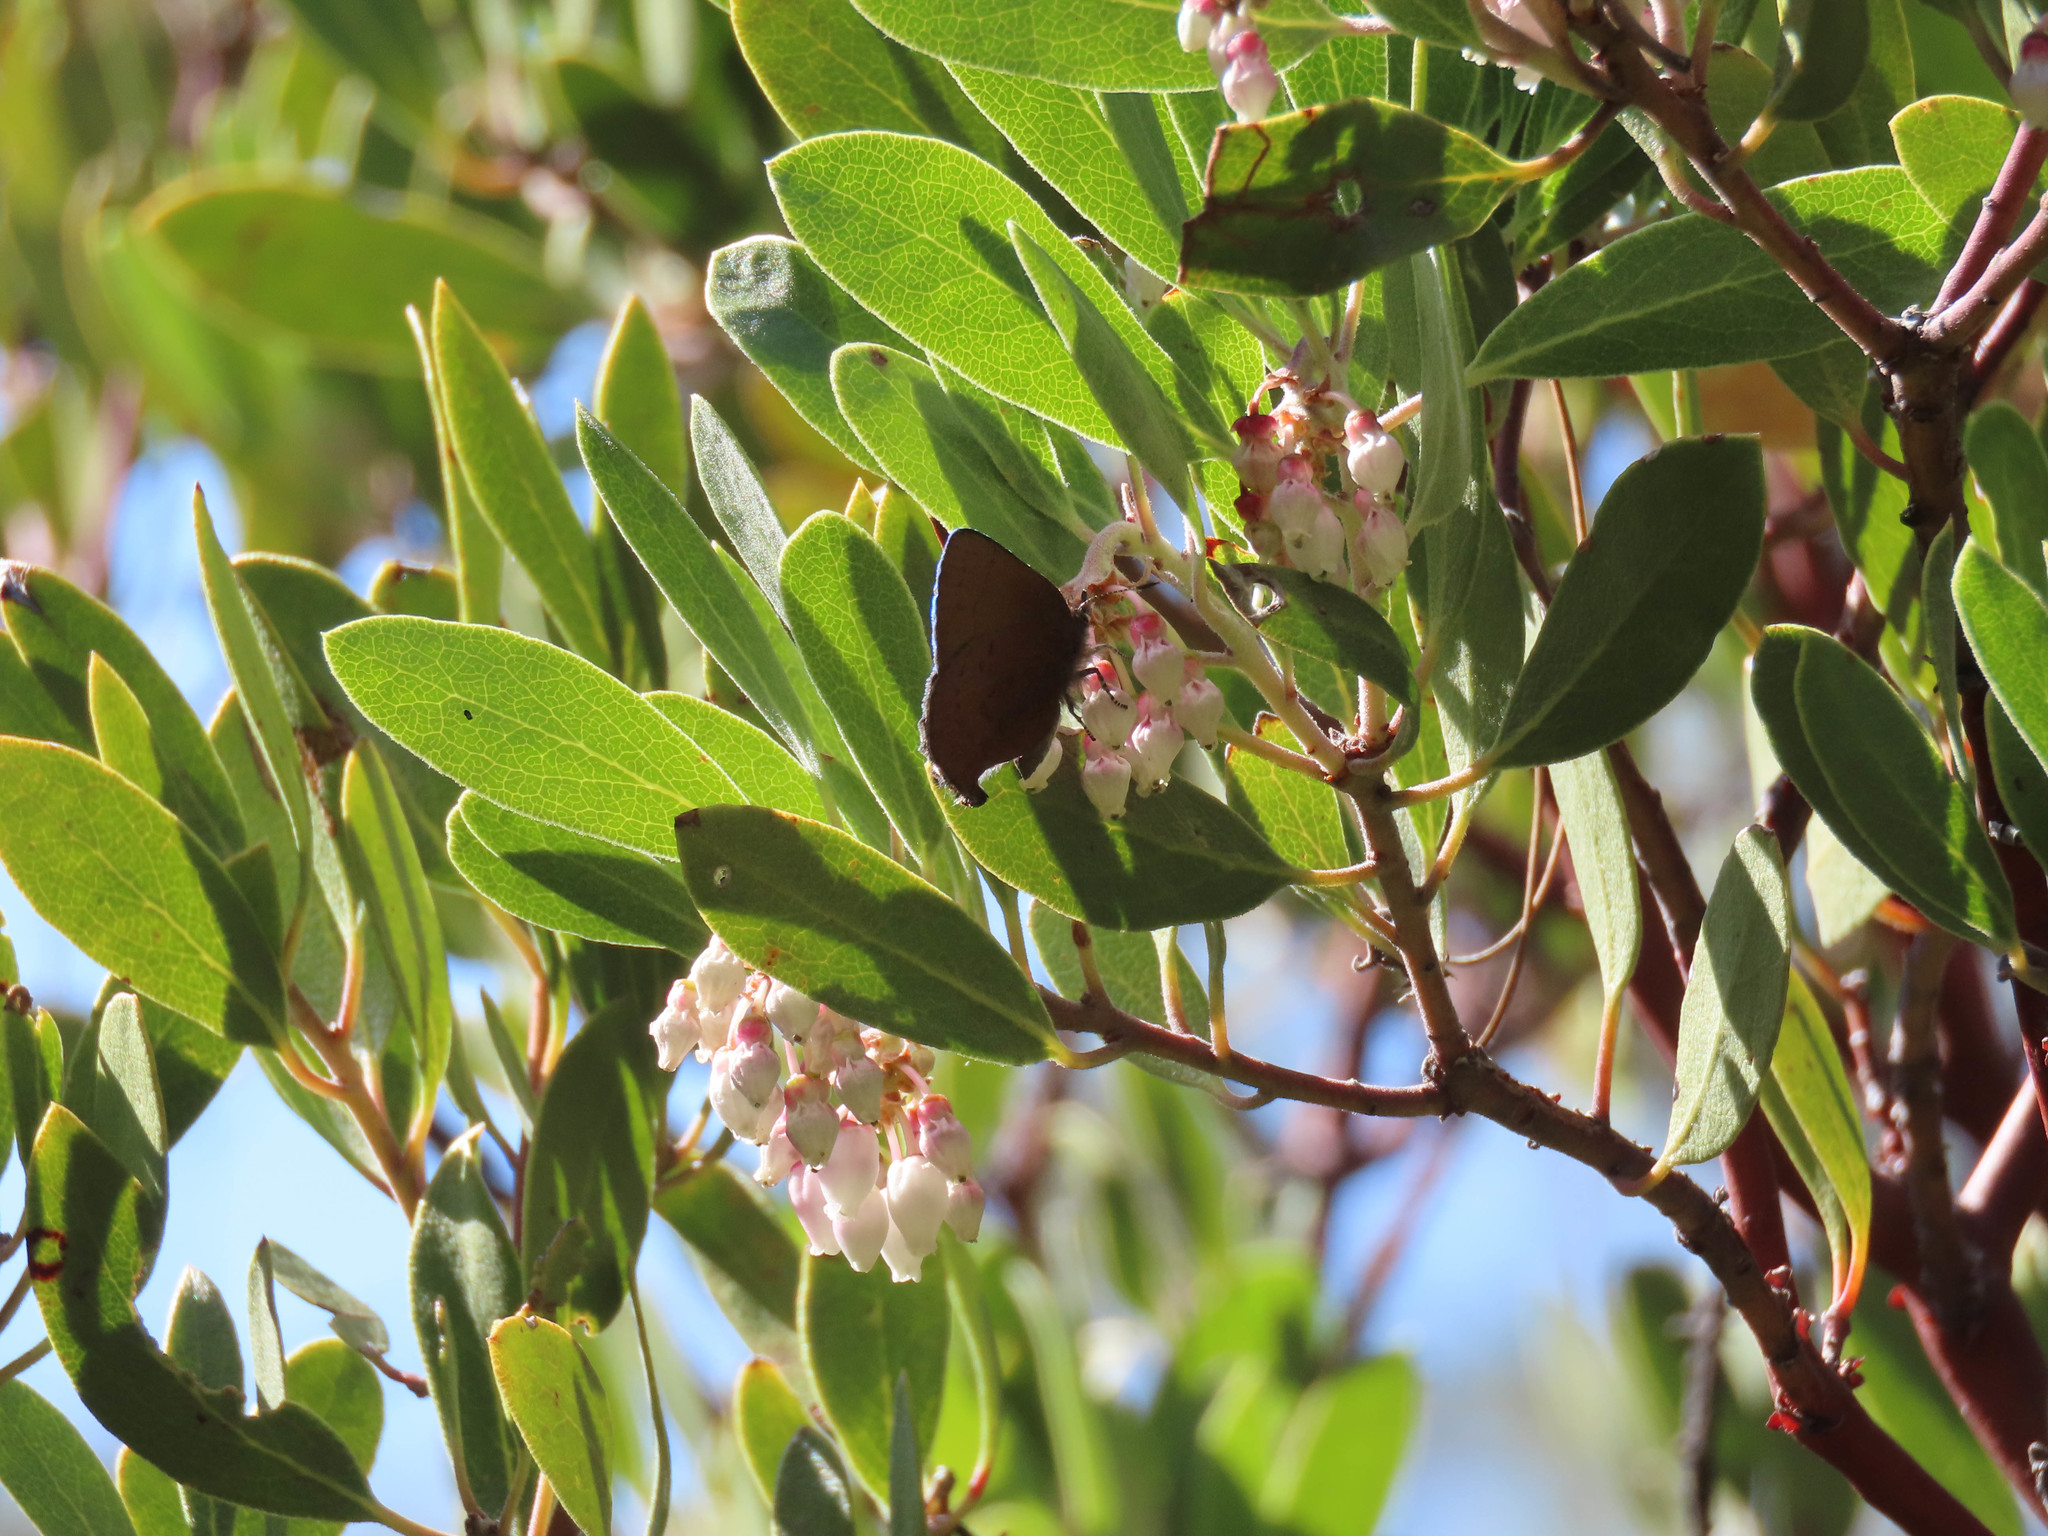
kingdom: Animalia
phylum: Arthropoda
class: Insecta
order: Lepidoptera
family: Lycaenidae
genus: Incisalia
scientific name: Incisalia irioides
